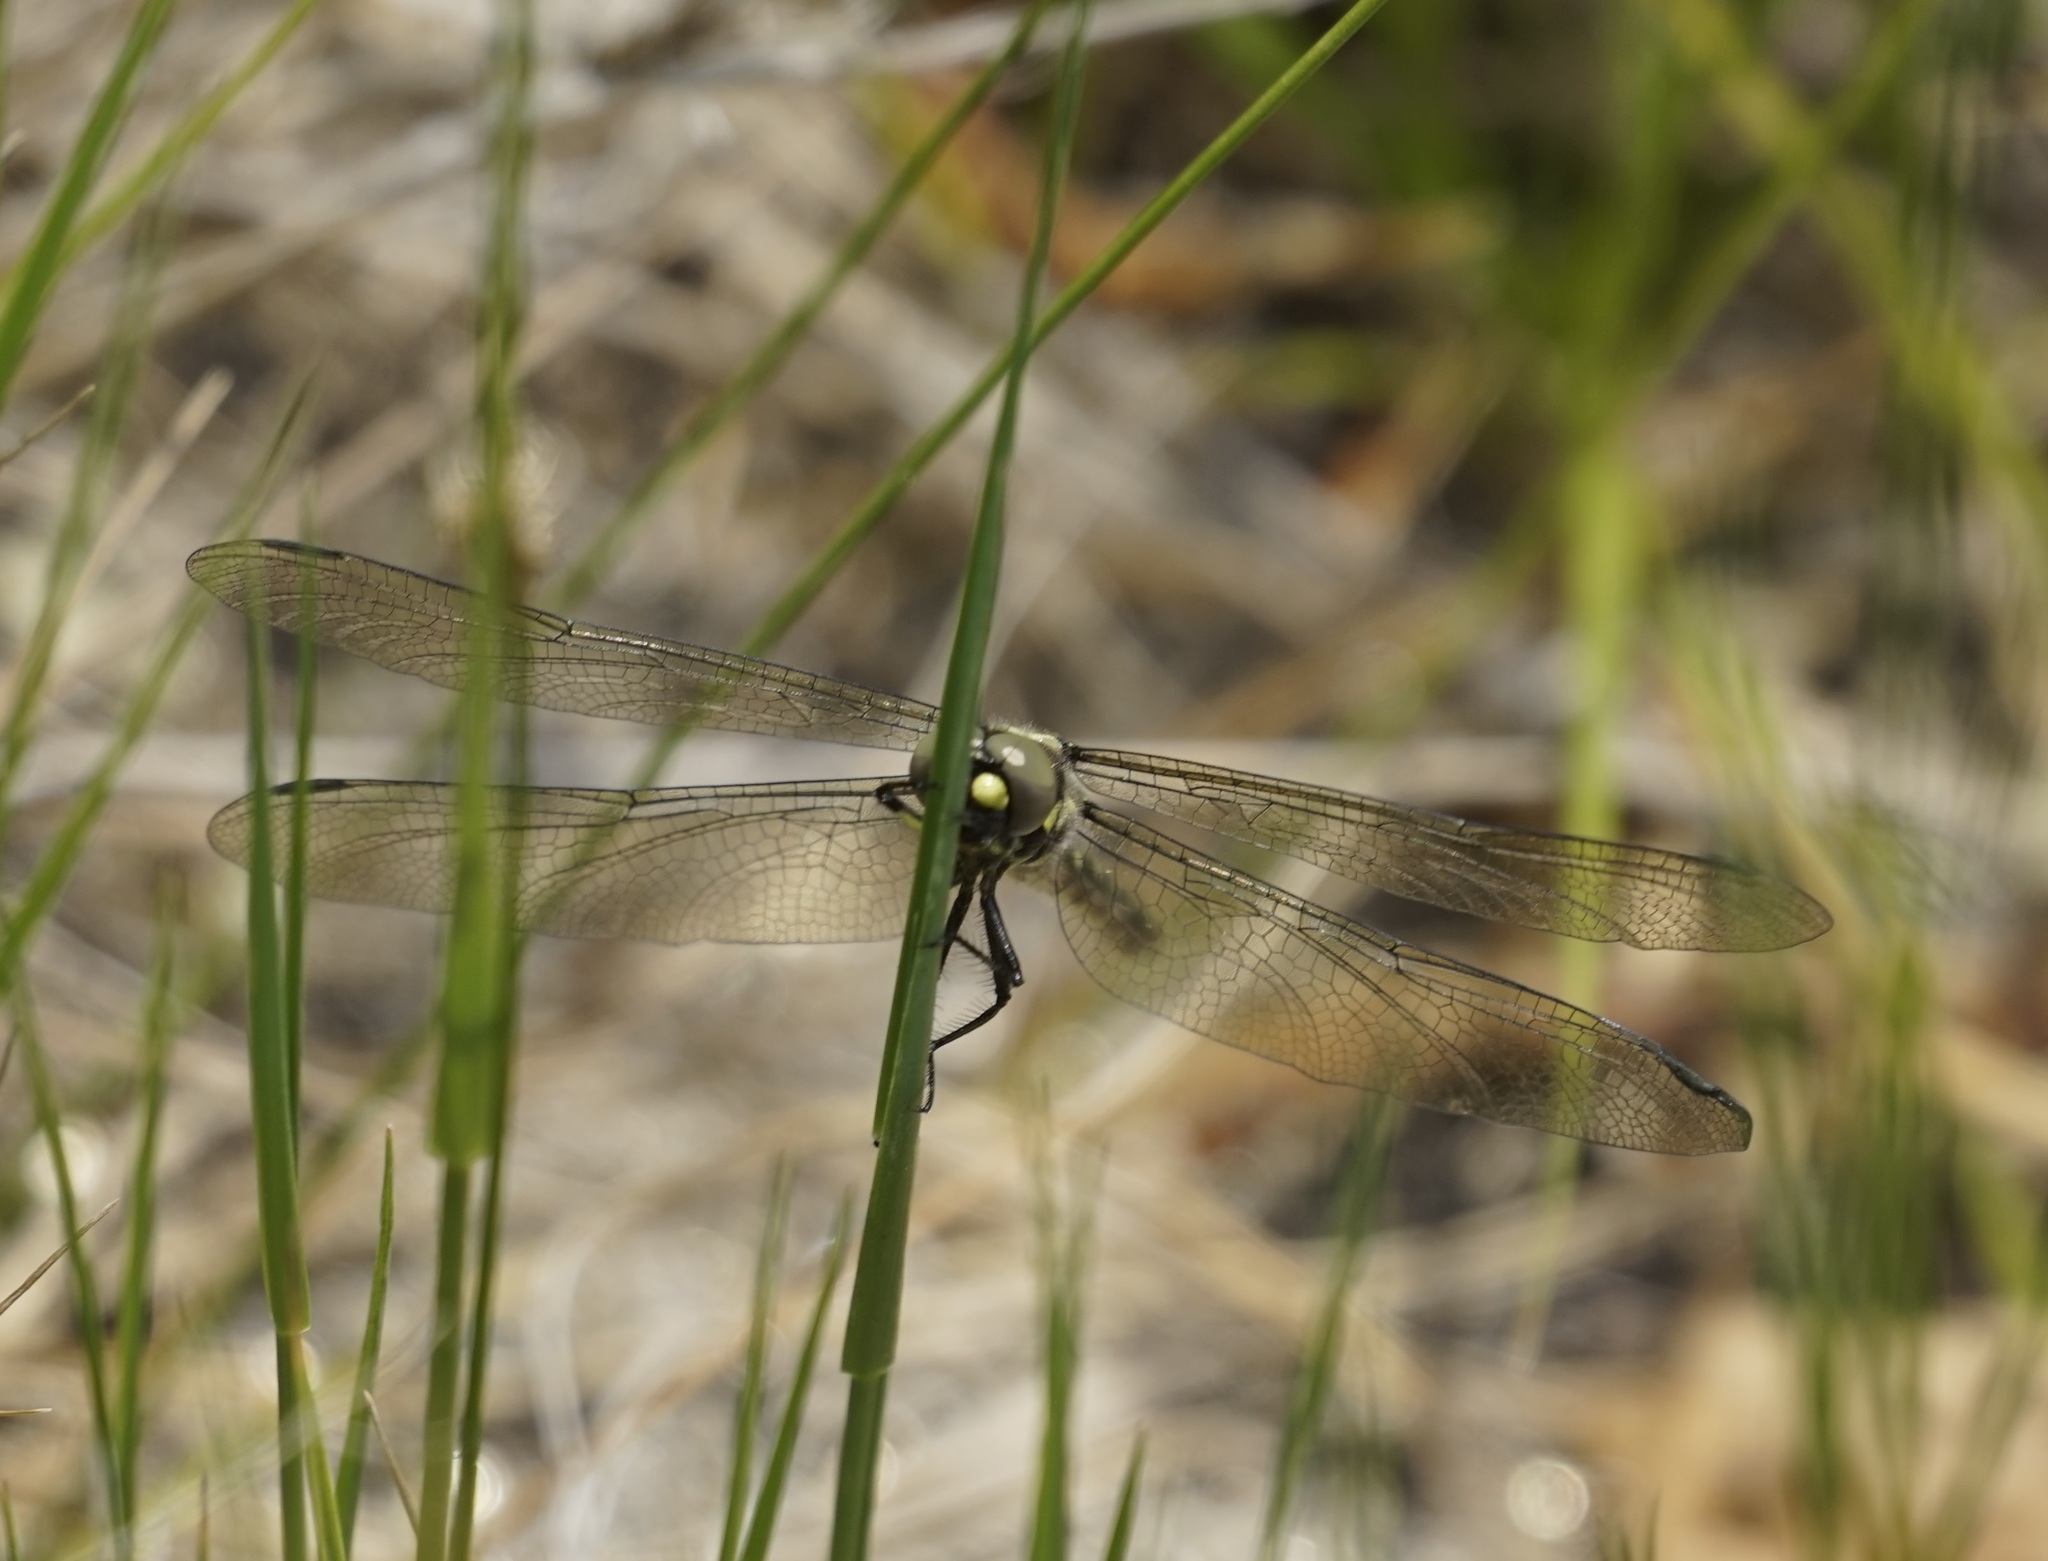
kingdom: Animalia
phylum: Arthropoda
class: Insecta
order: Odonata
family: Synthemistidae
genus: Eusynthemis
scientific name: Eusynthemis brevistyla
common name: Small tigertail
